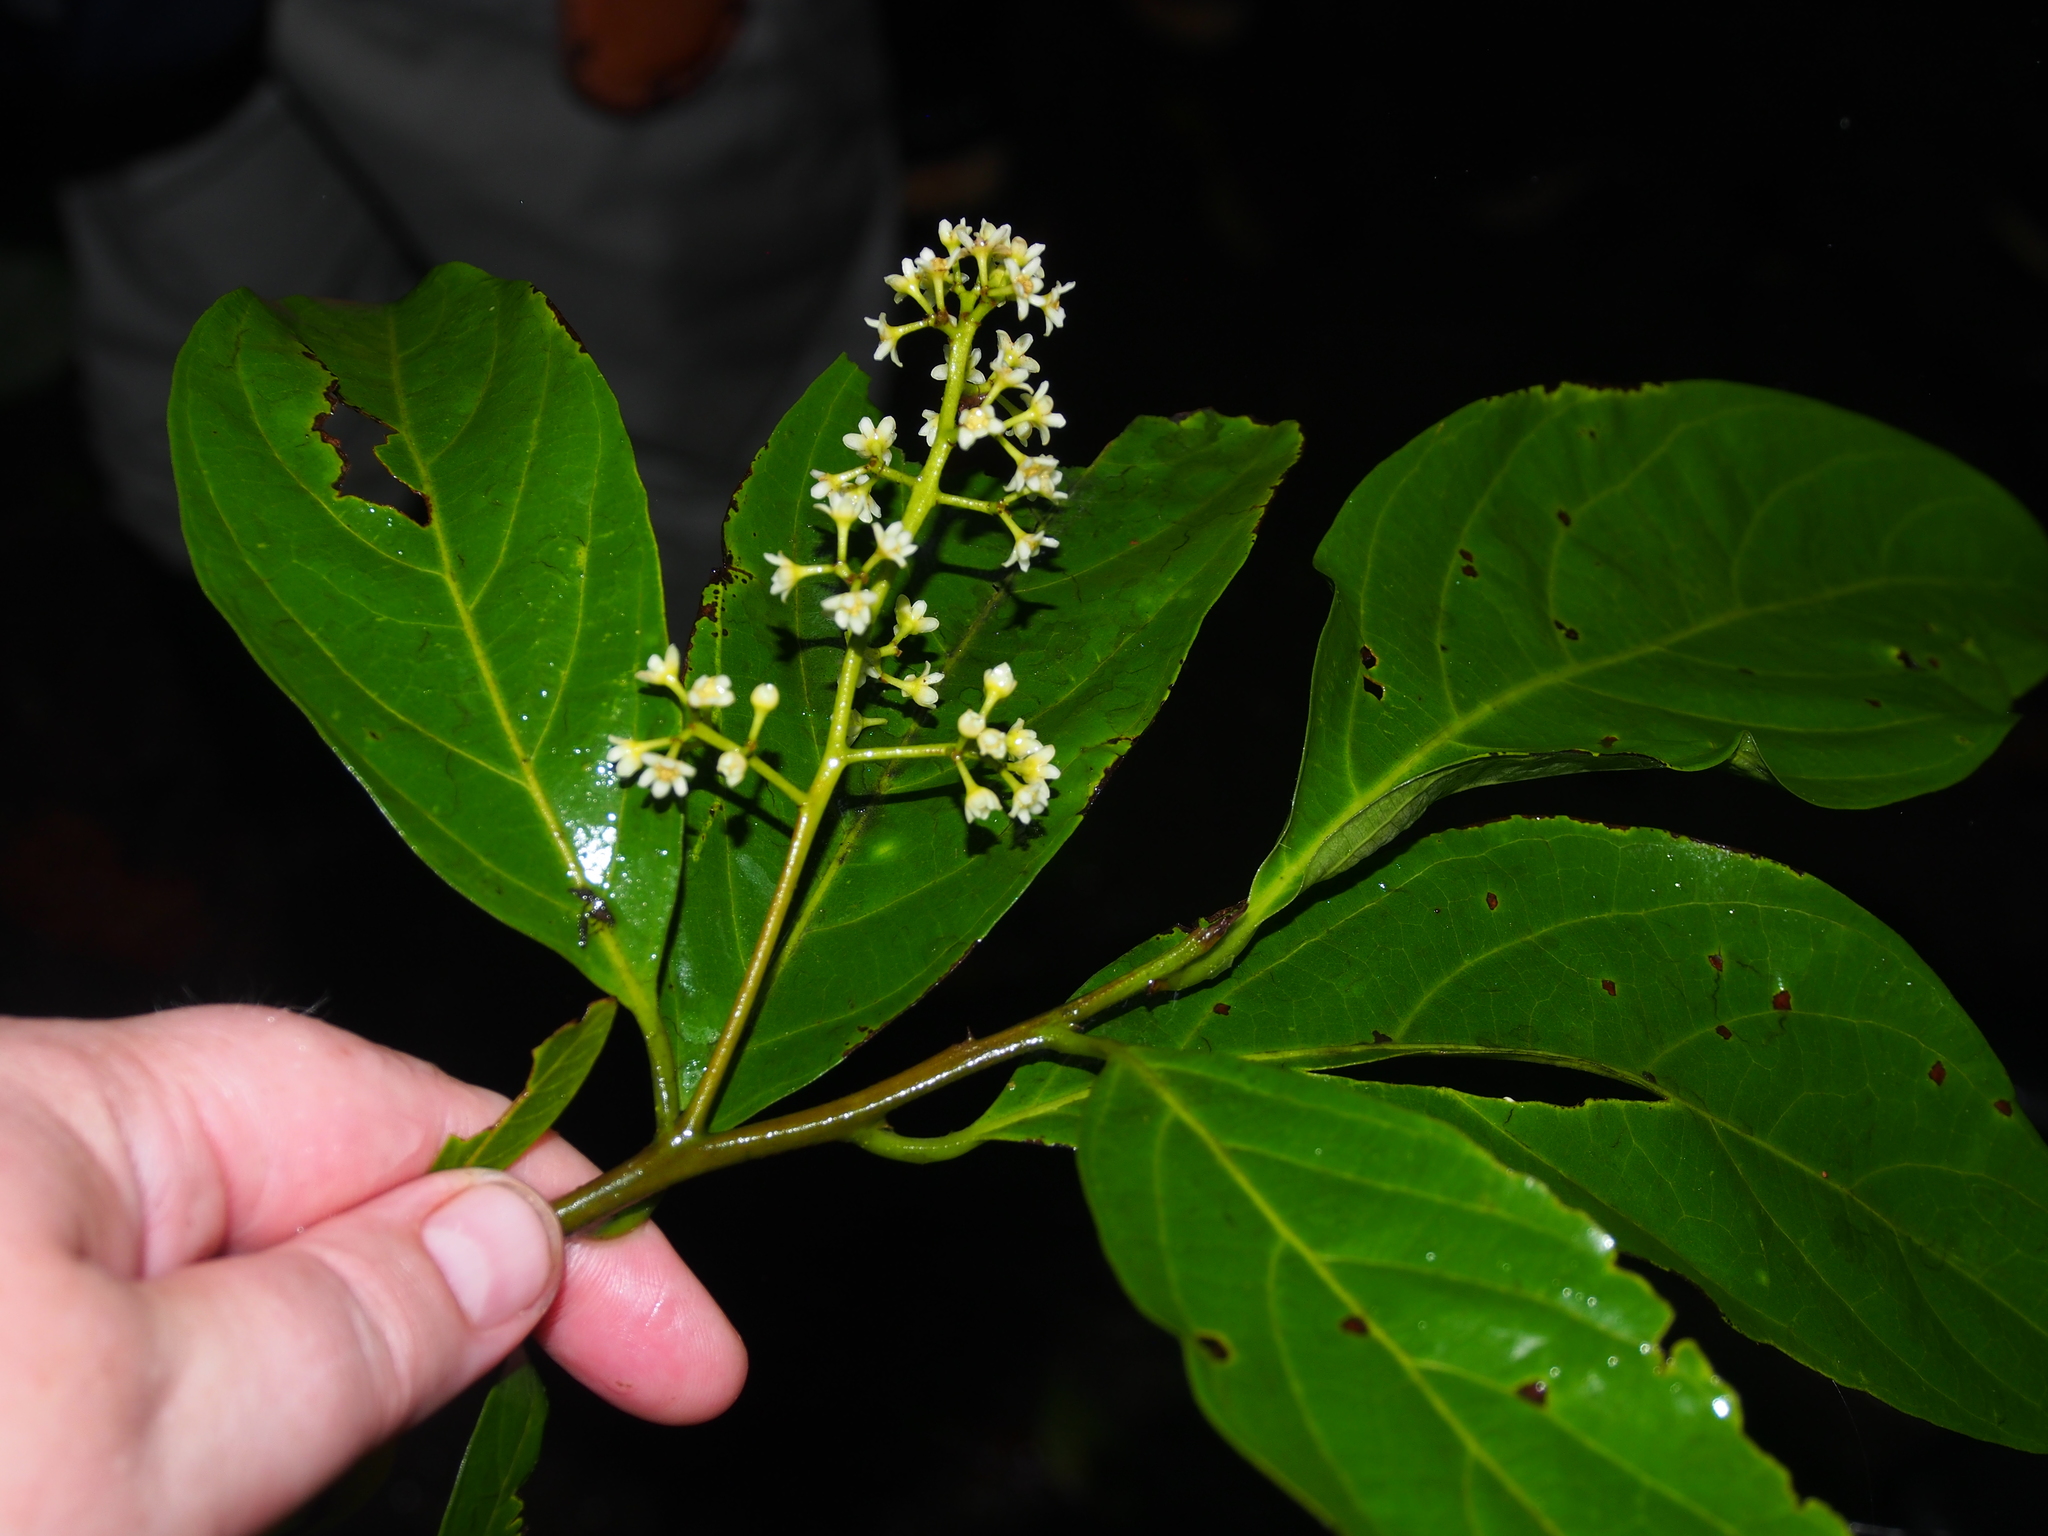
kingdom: Plantae
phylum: Tracheophyta
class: Magnoliopsida
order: Laurales
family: Lauraceae
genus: Ocotea
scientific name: Ocotea leucoxylon
